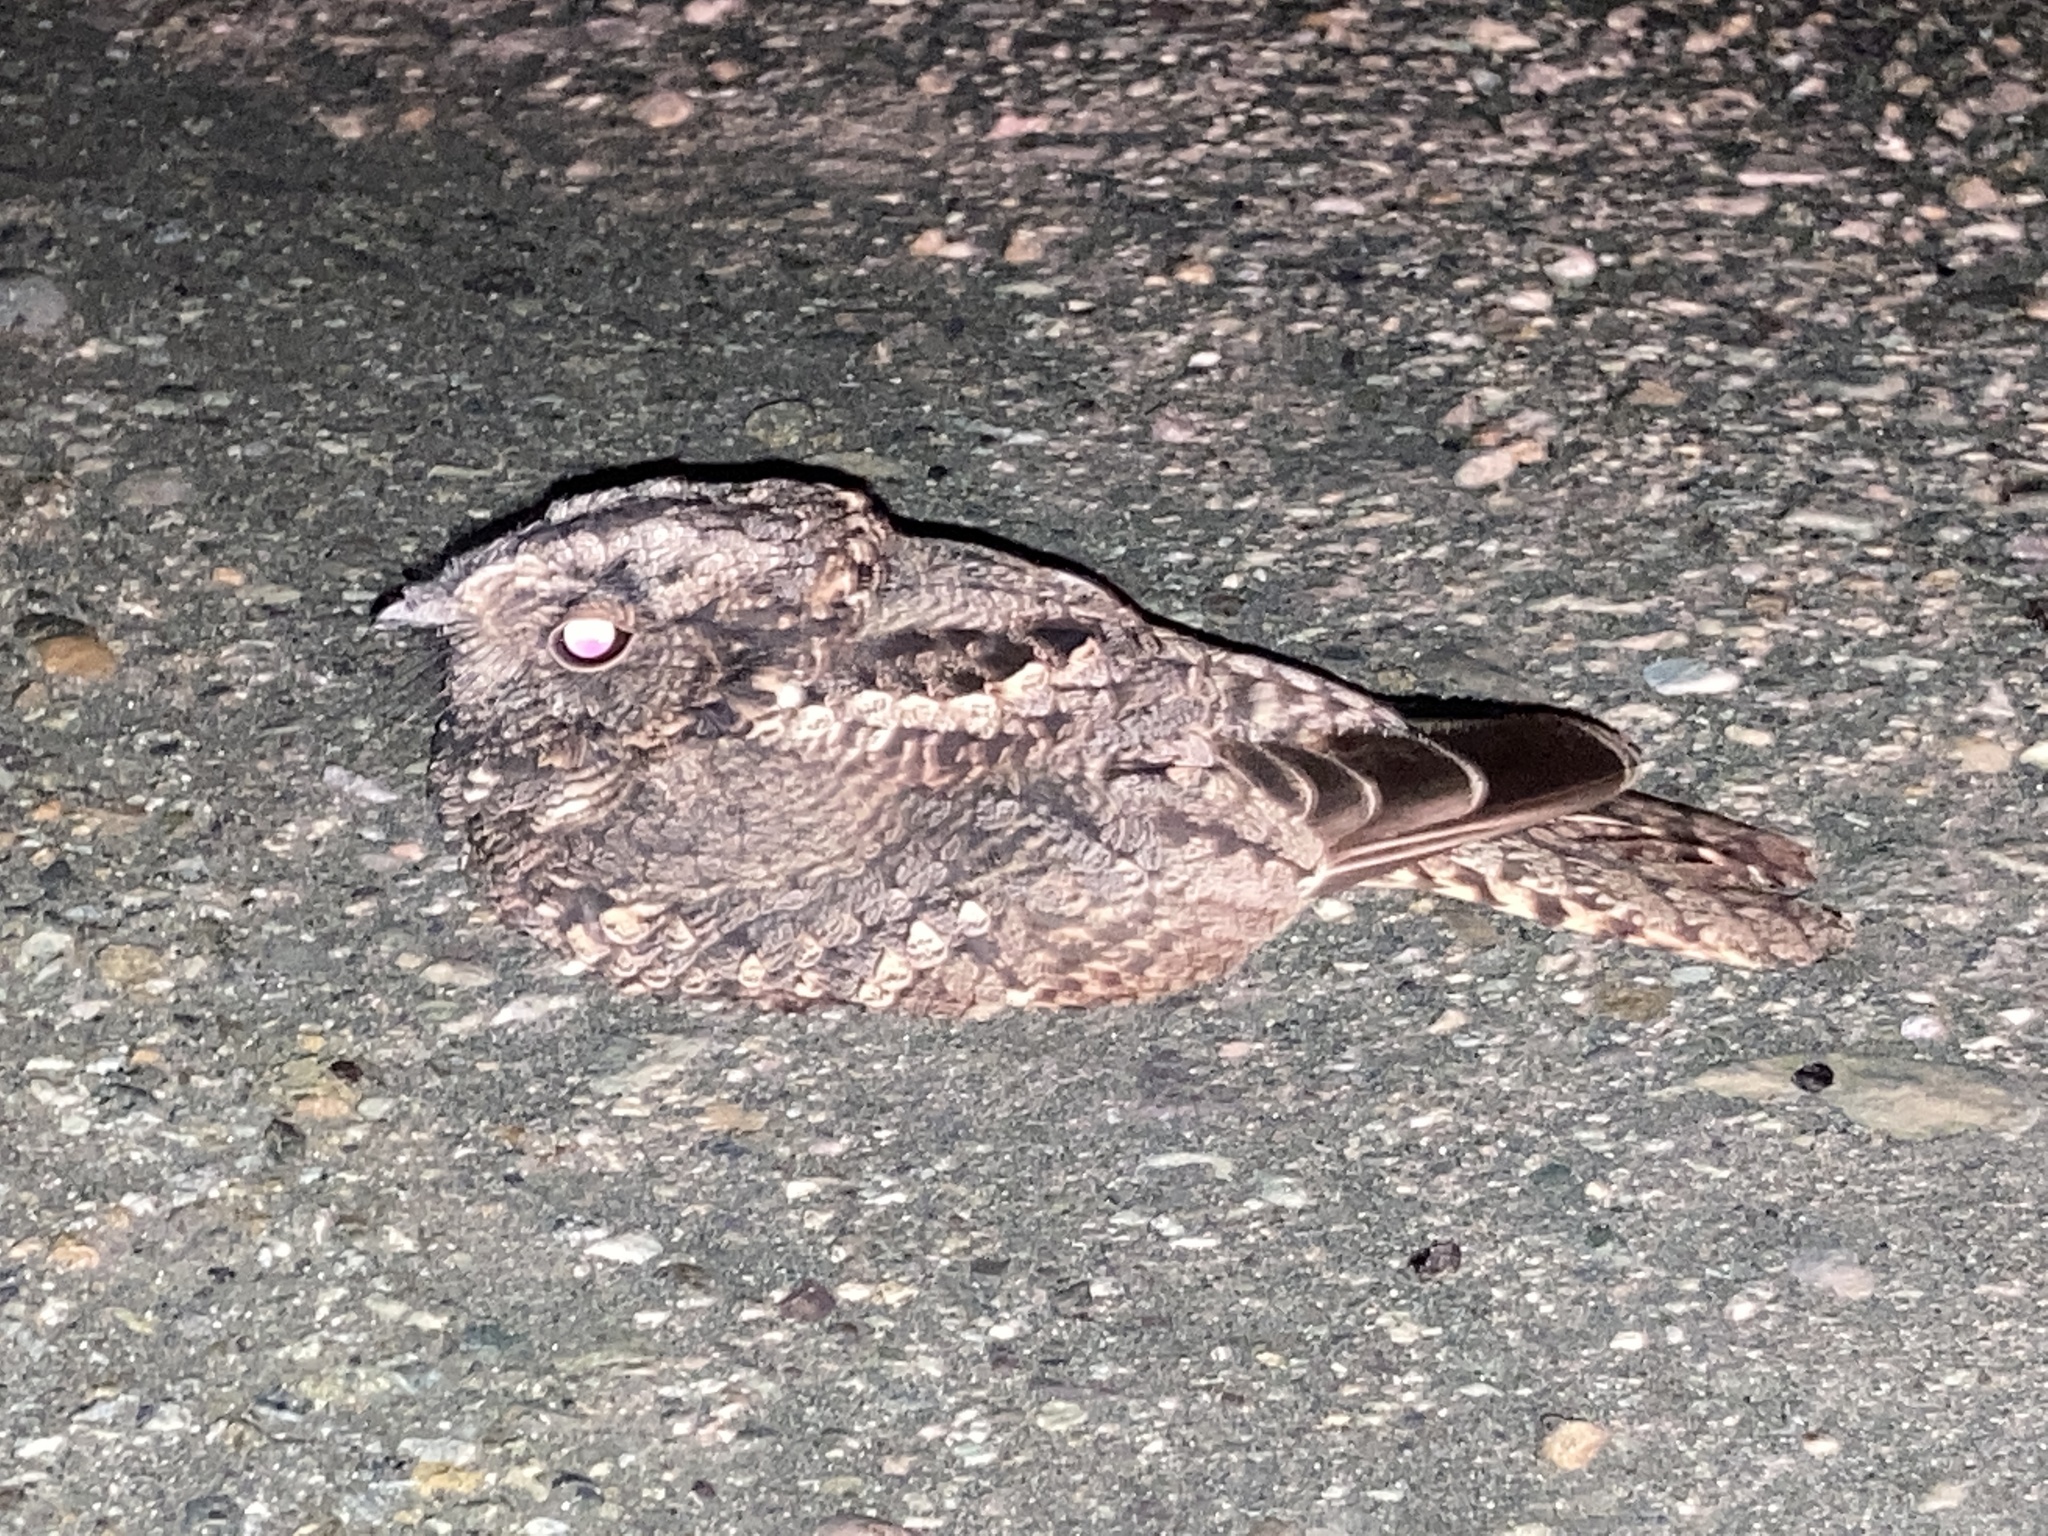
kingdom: Animalia
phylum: Chordata
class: Aves
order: Caprimulgiformes
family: Caprimulgidae
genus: Systellura
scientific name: Systellura longirostris
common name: Band-winged nightjar
